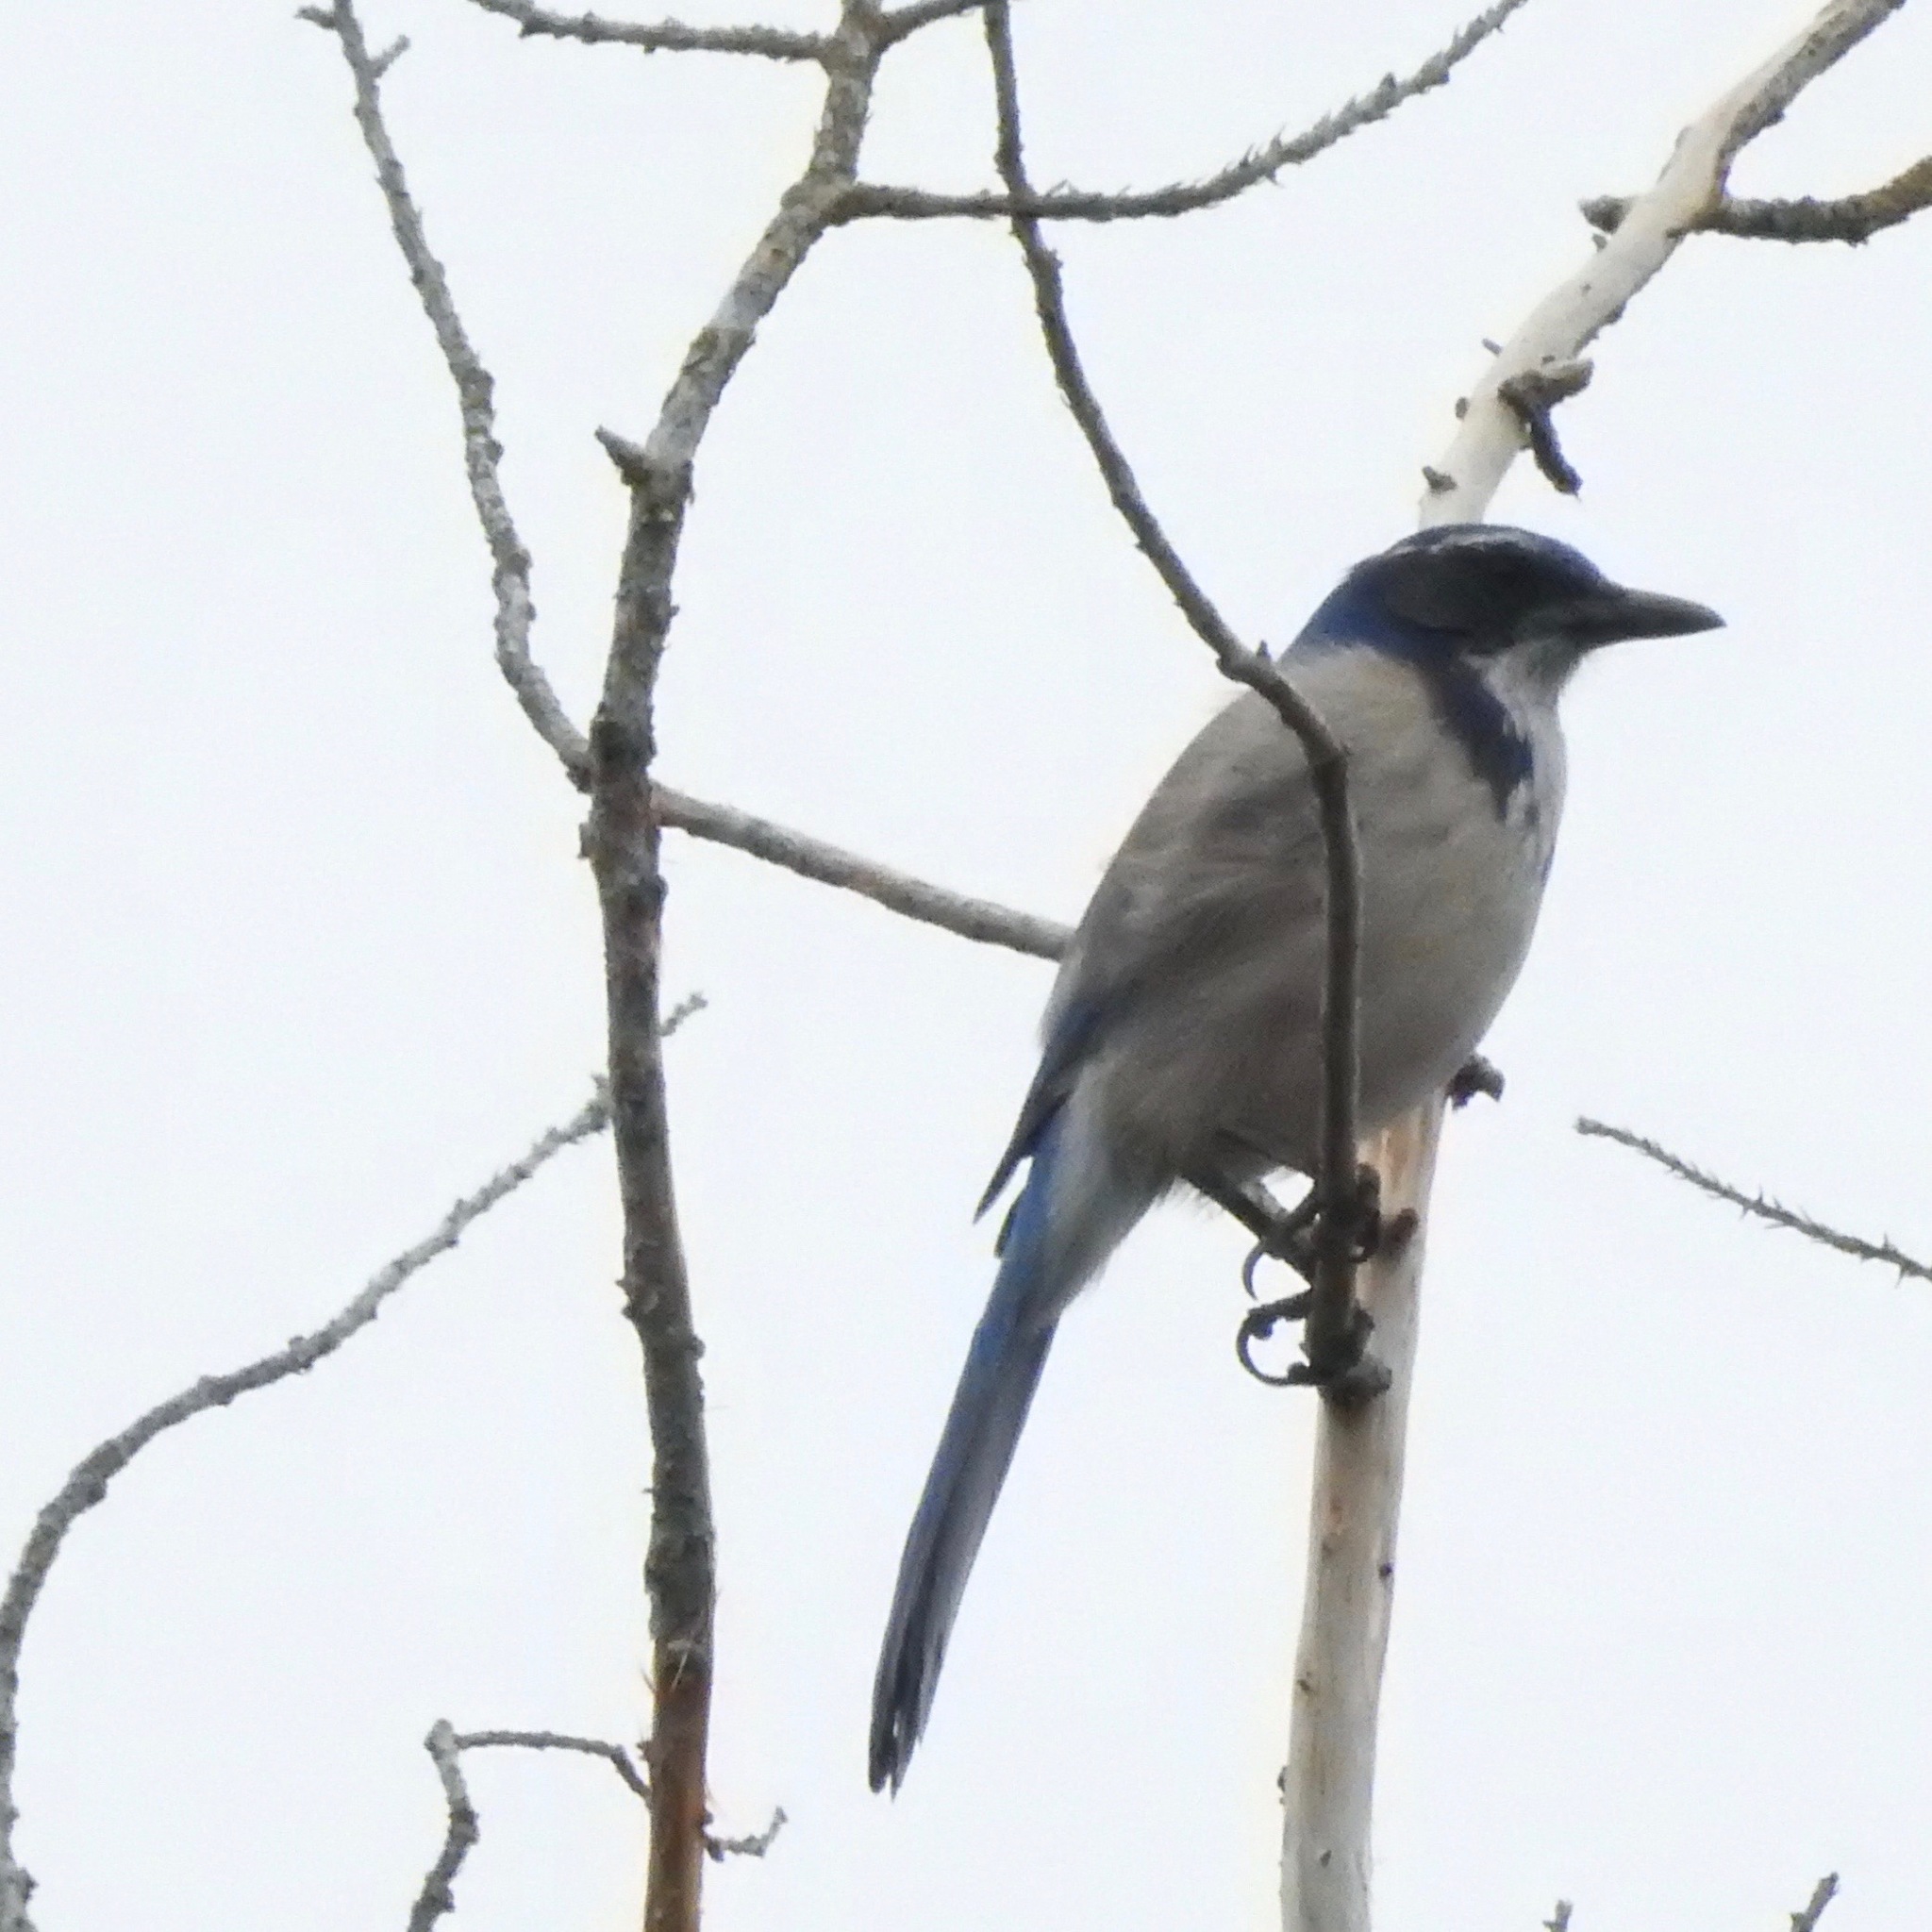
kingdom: Animalia
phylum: Chordata
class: Aves
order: Passeriformes
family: Corvidae
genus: Aphelocoma
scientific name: Aphelocoma californica
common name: California scrub-jay
